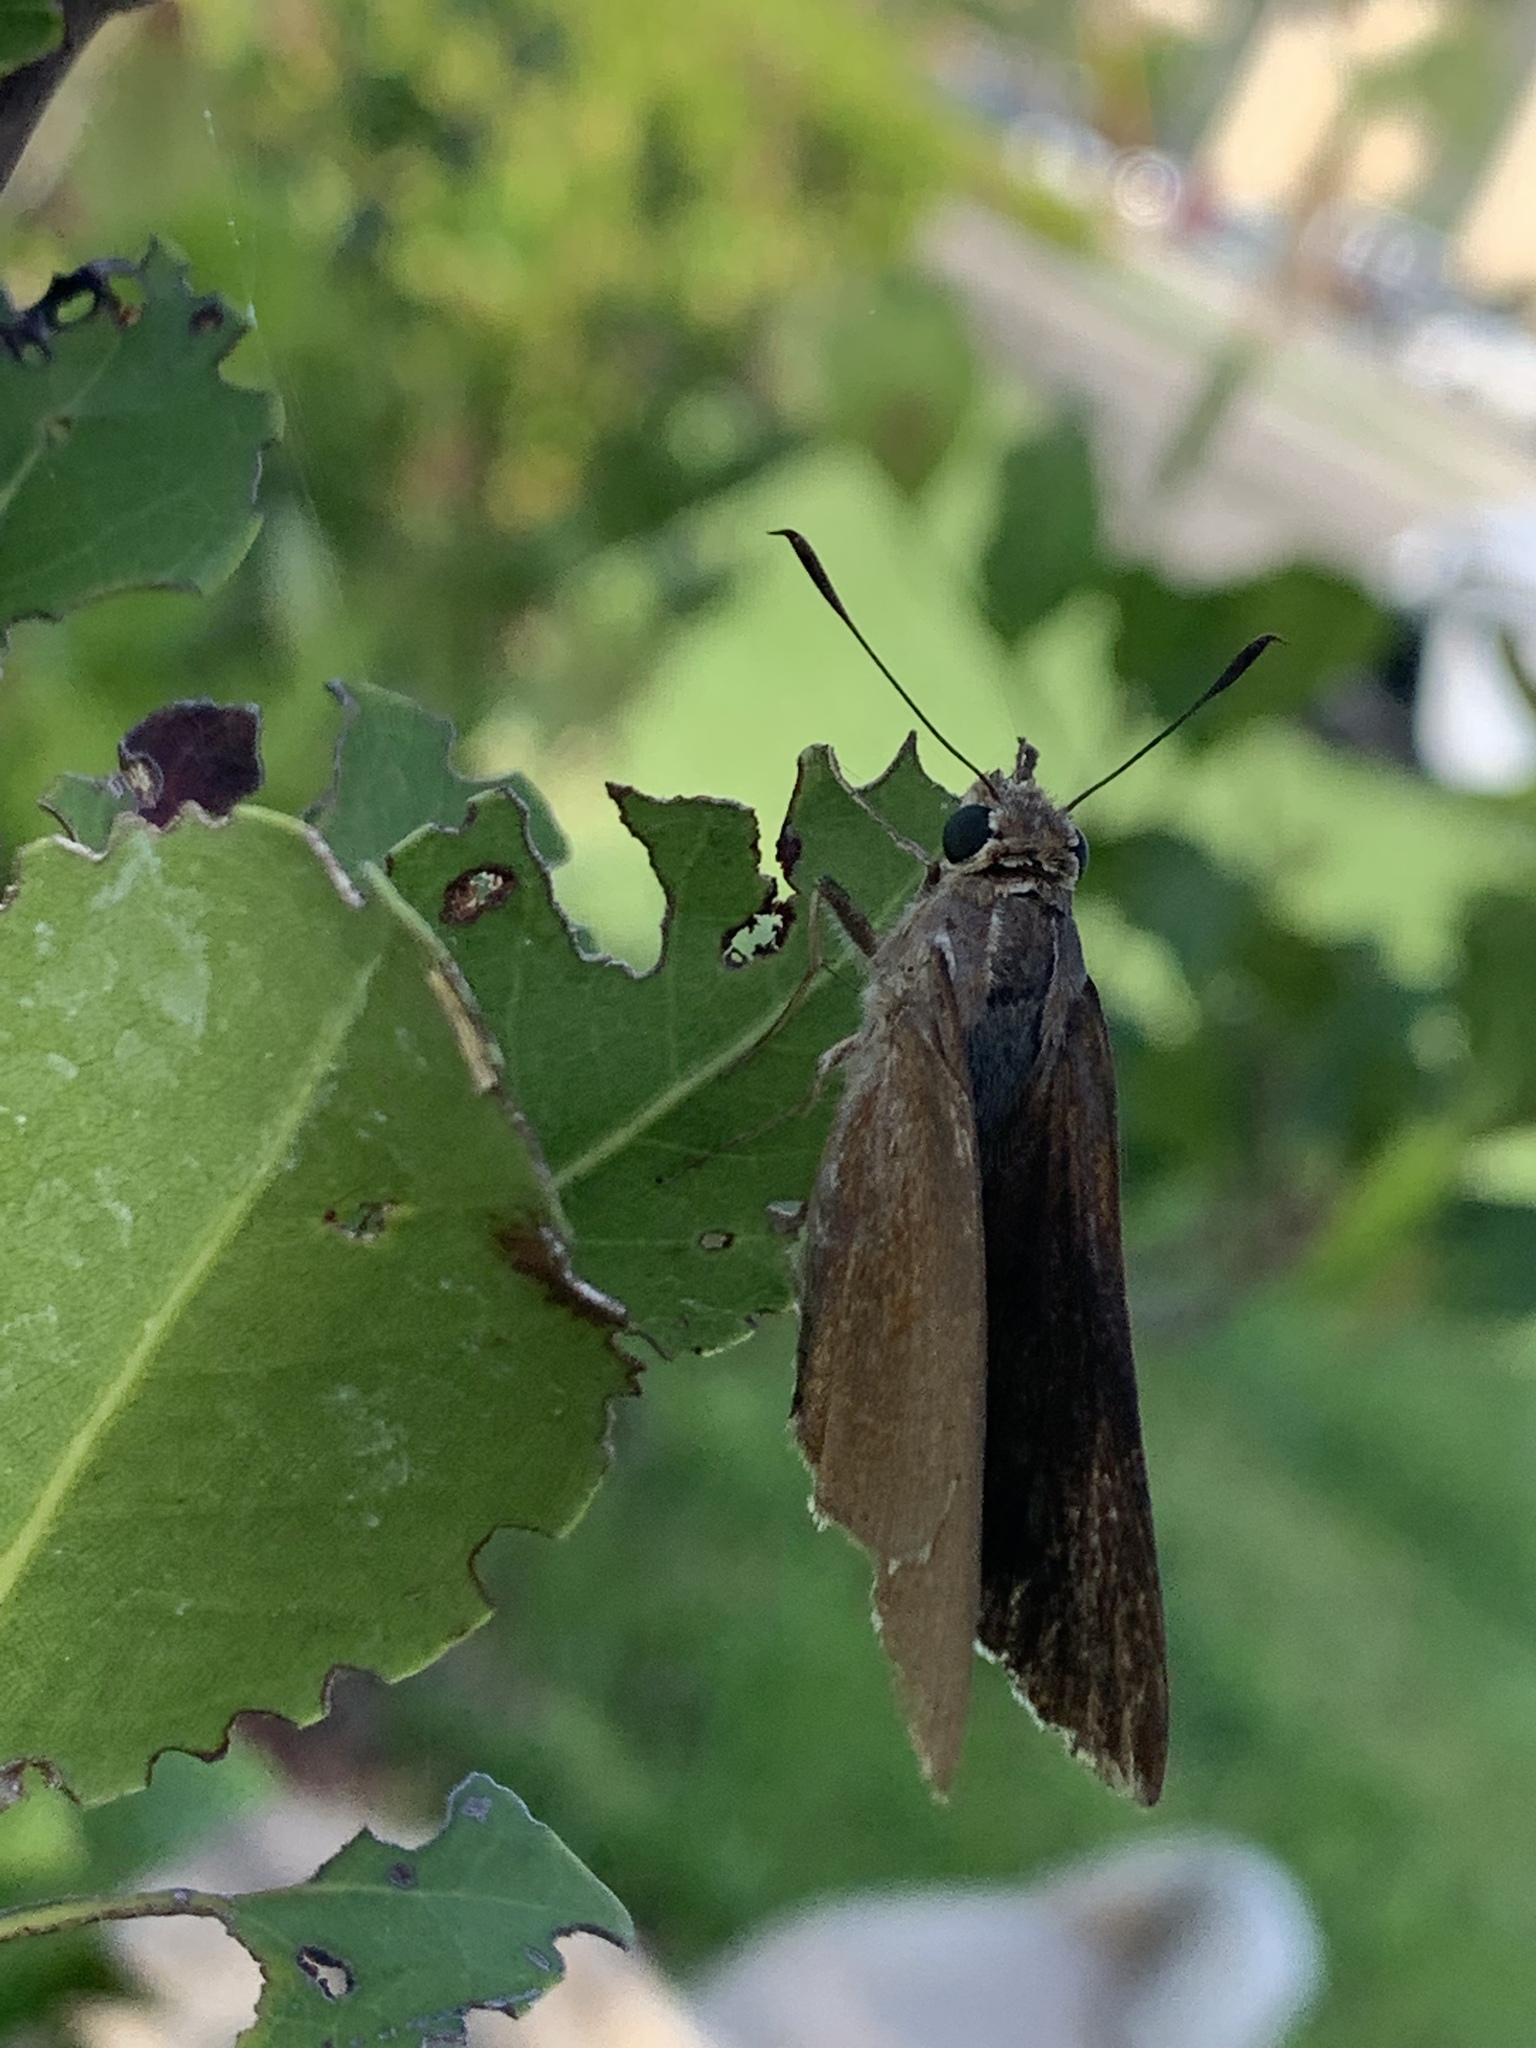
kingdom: Animalia
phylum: Arthropoda
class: Insecta
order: Lepidoptera
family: Hesperiidae
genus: Asbolis
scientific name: Asbolis capucinus
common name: Monk skipper
